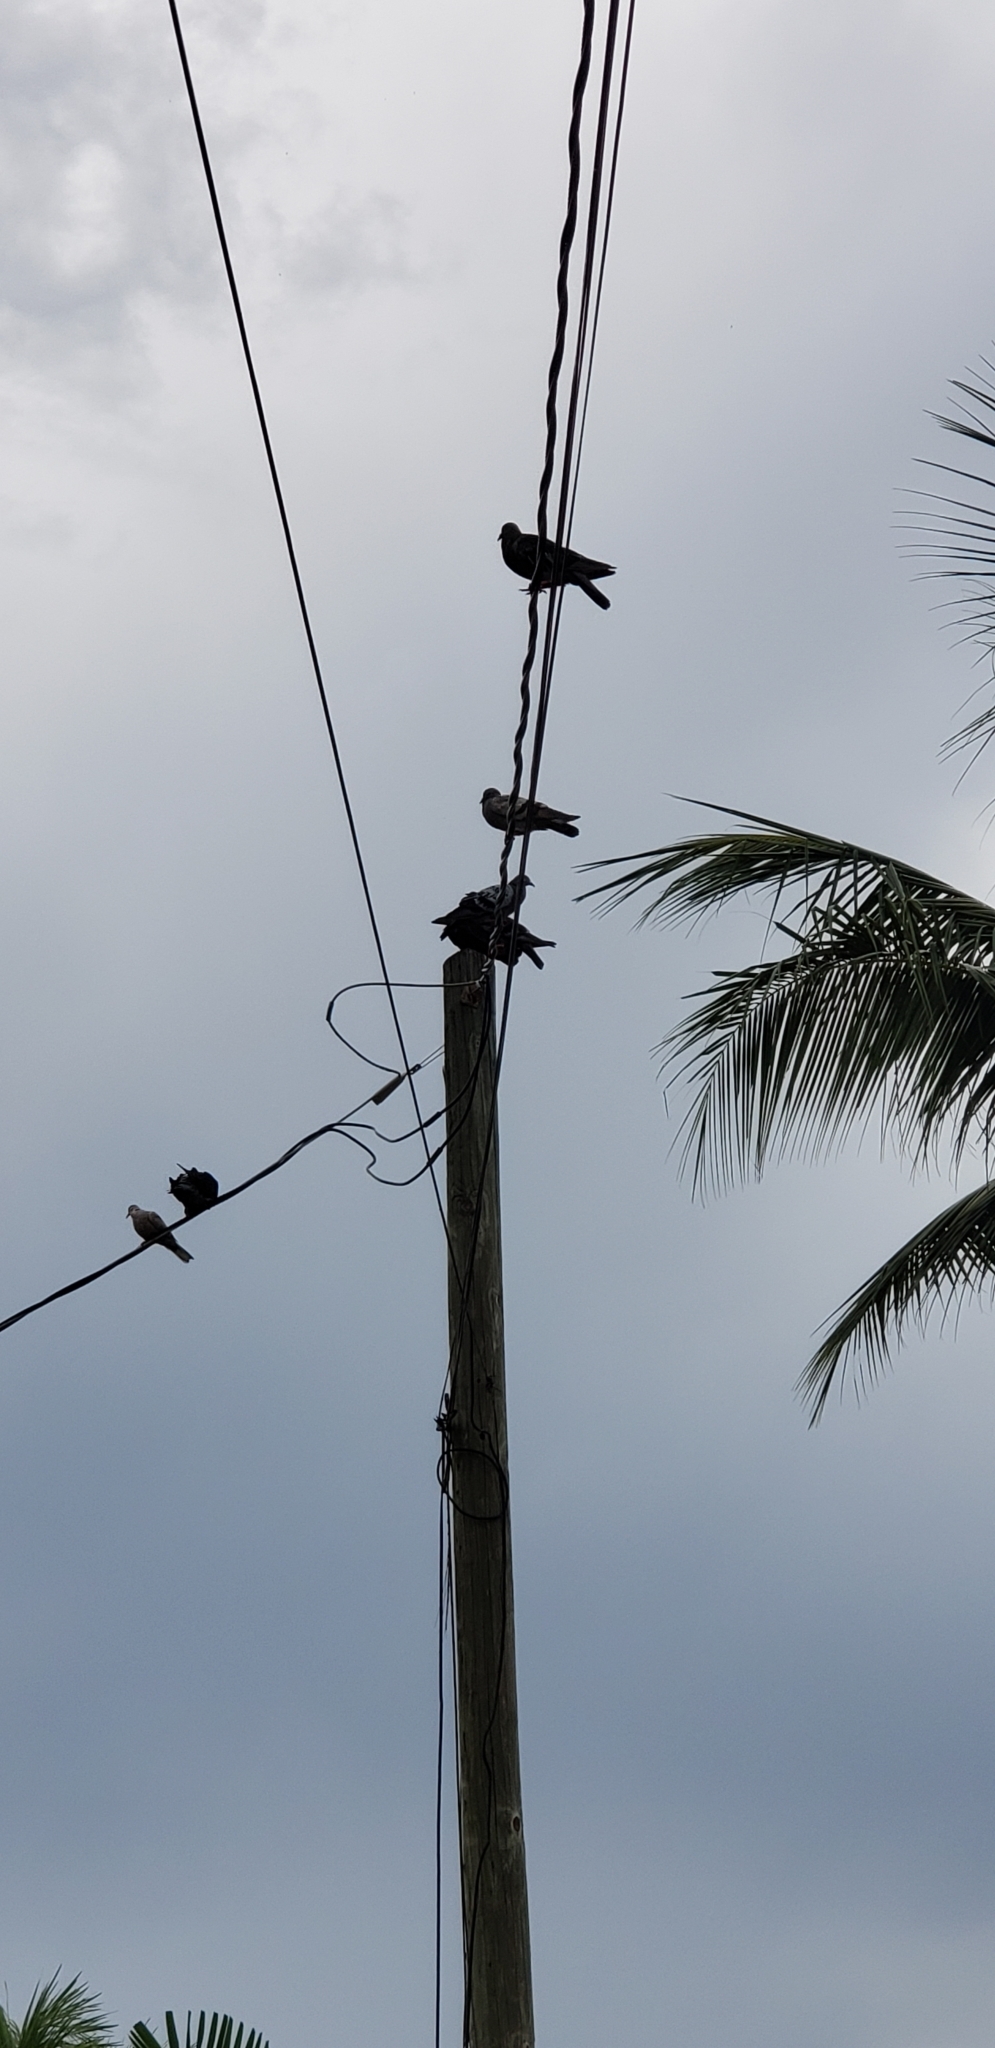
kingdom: Animalia
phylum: Chordata
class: Aves
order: Columbiformes
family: Columbidae
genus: Columba
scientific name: Columba livia
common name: Rock pigeon
